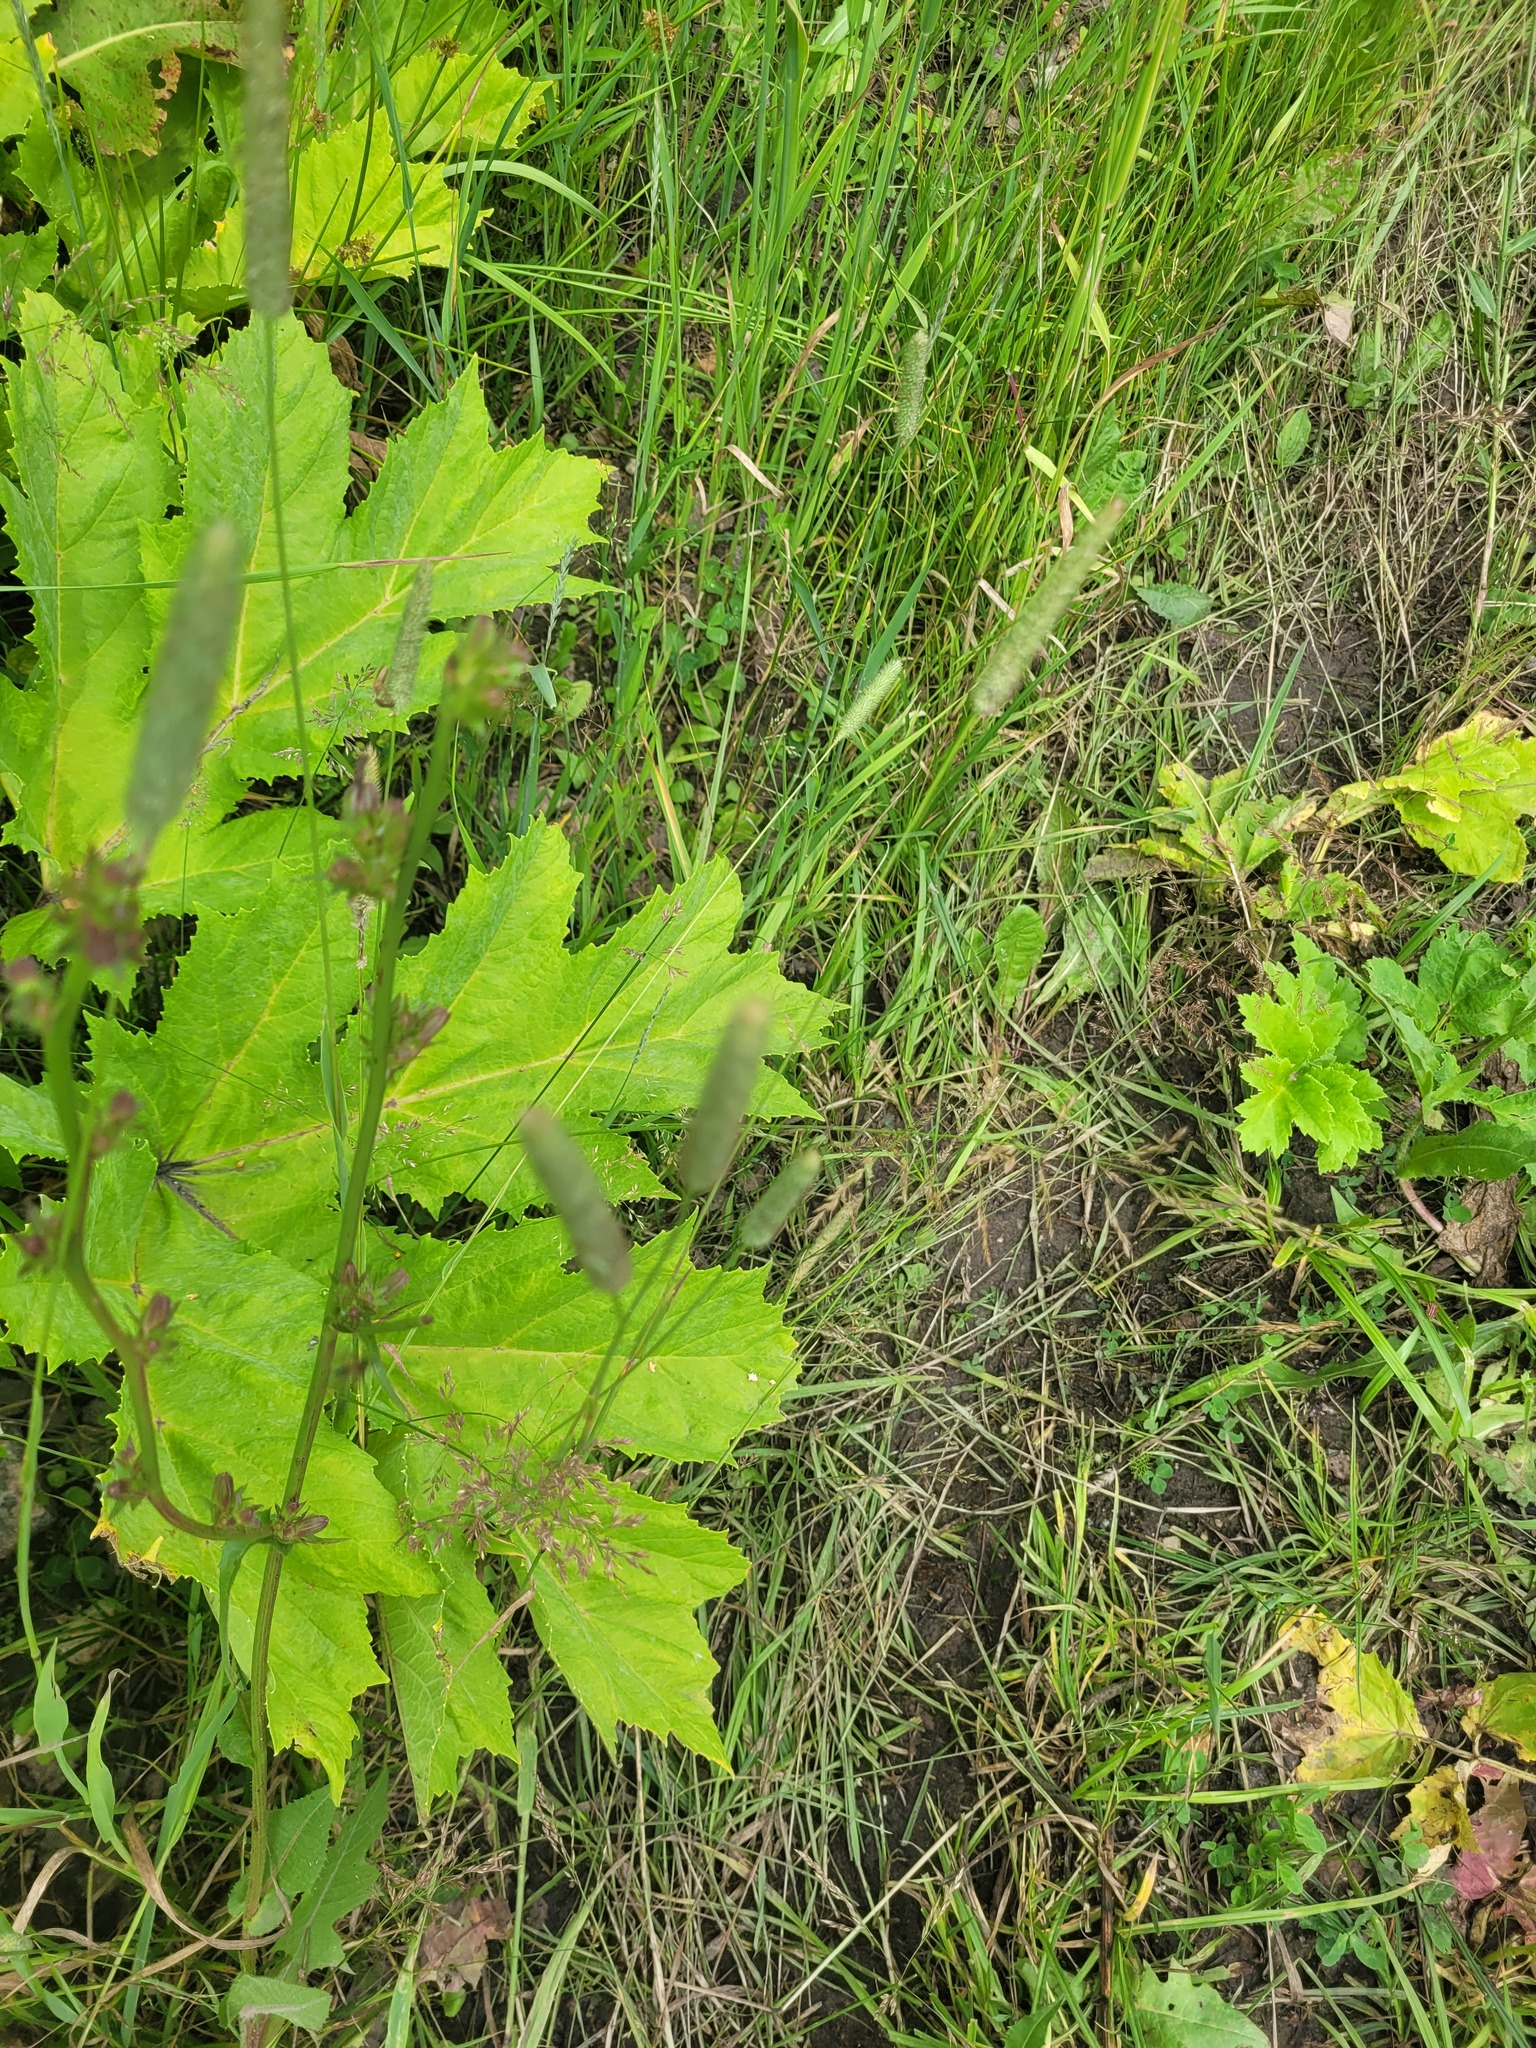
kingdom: Plantae
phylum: Tracheophyta
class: Liliopsida
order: Poales
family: Poaceae
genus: Phleum
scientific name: Phleum pratense
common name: Timothy grass
